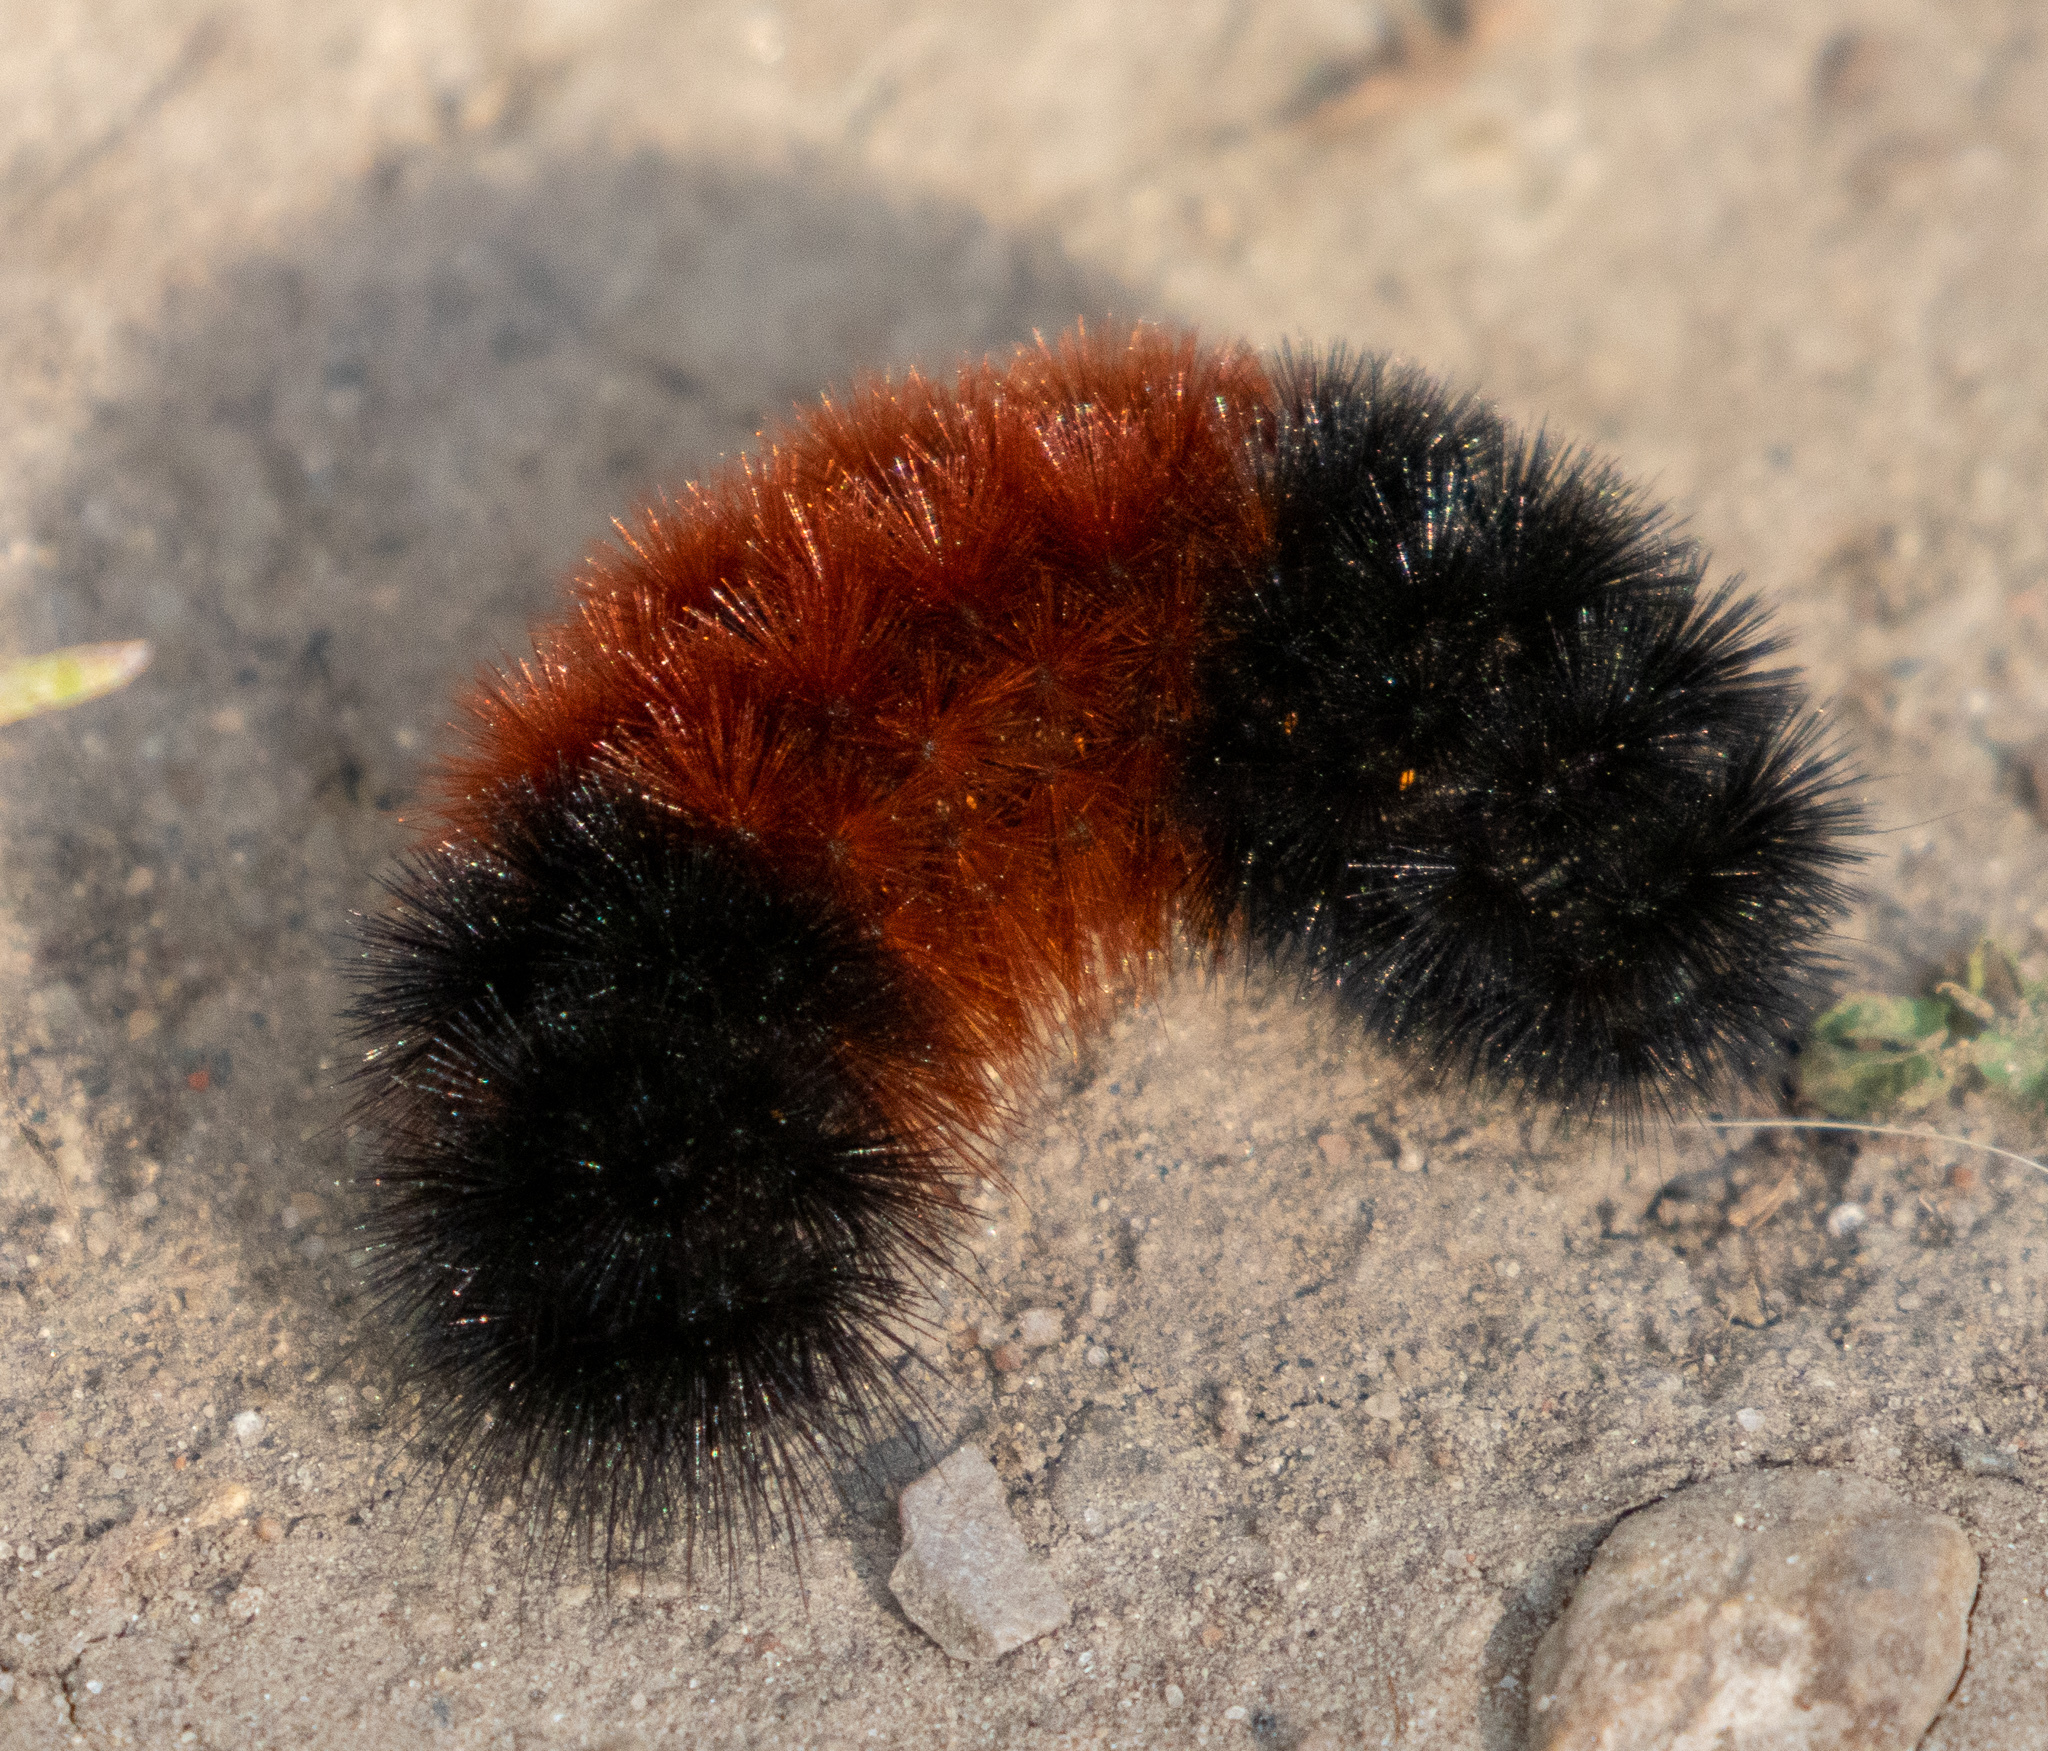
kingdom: Animalia
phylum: Arthropoda
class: Insecta
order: Lepidoptera
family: Erebidae
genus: Pyrrharctia
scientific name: Pyrrharctia isabella
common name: Isabella tiger moth
